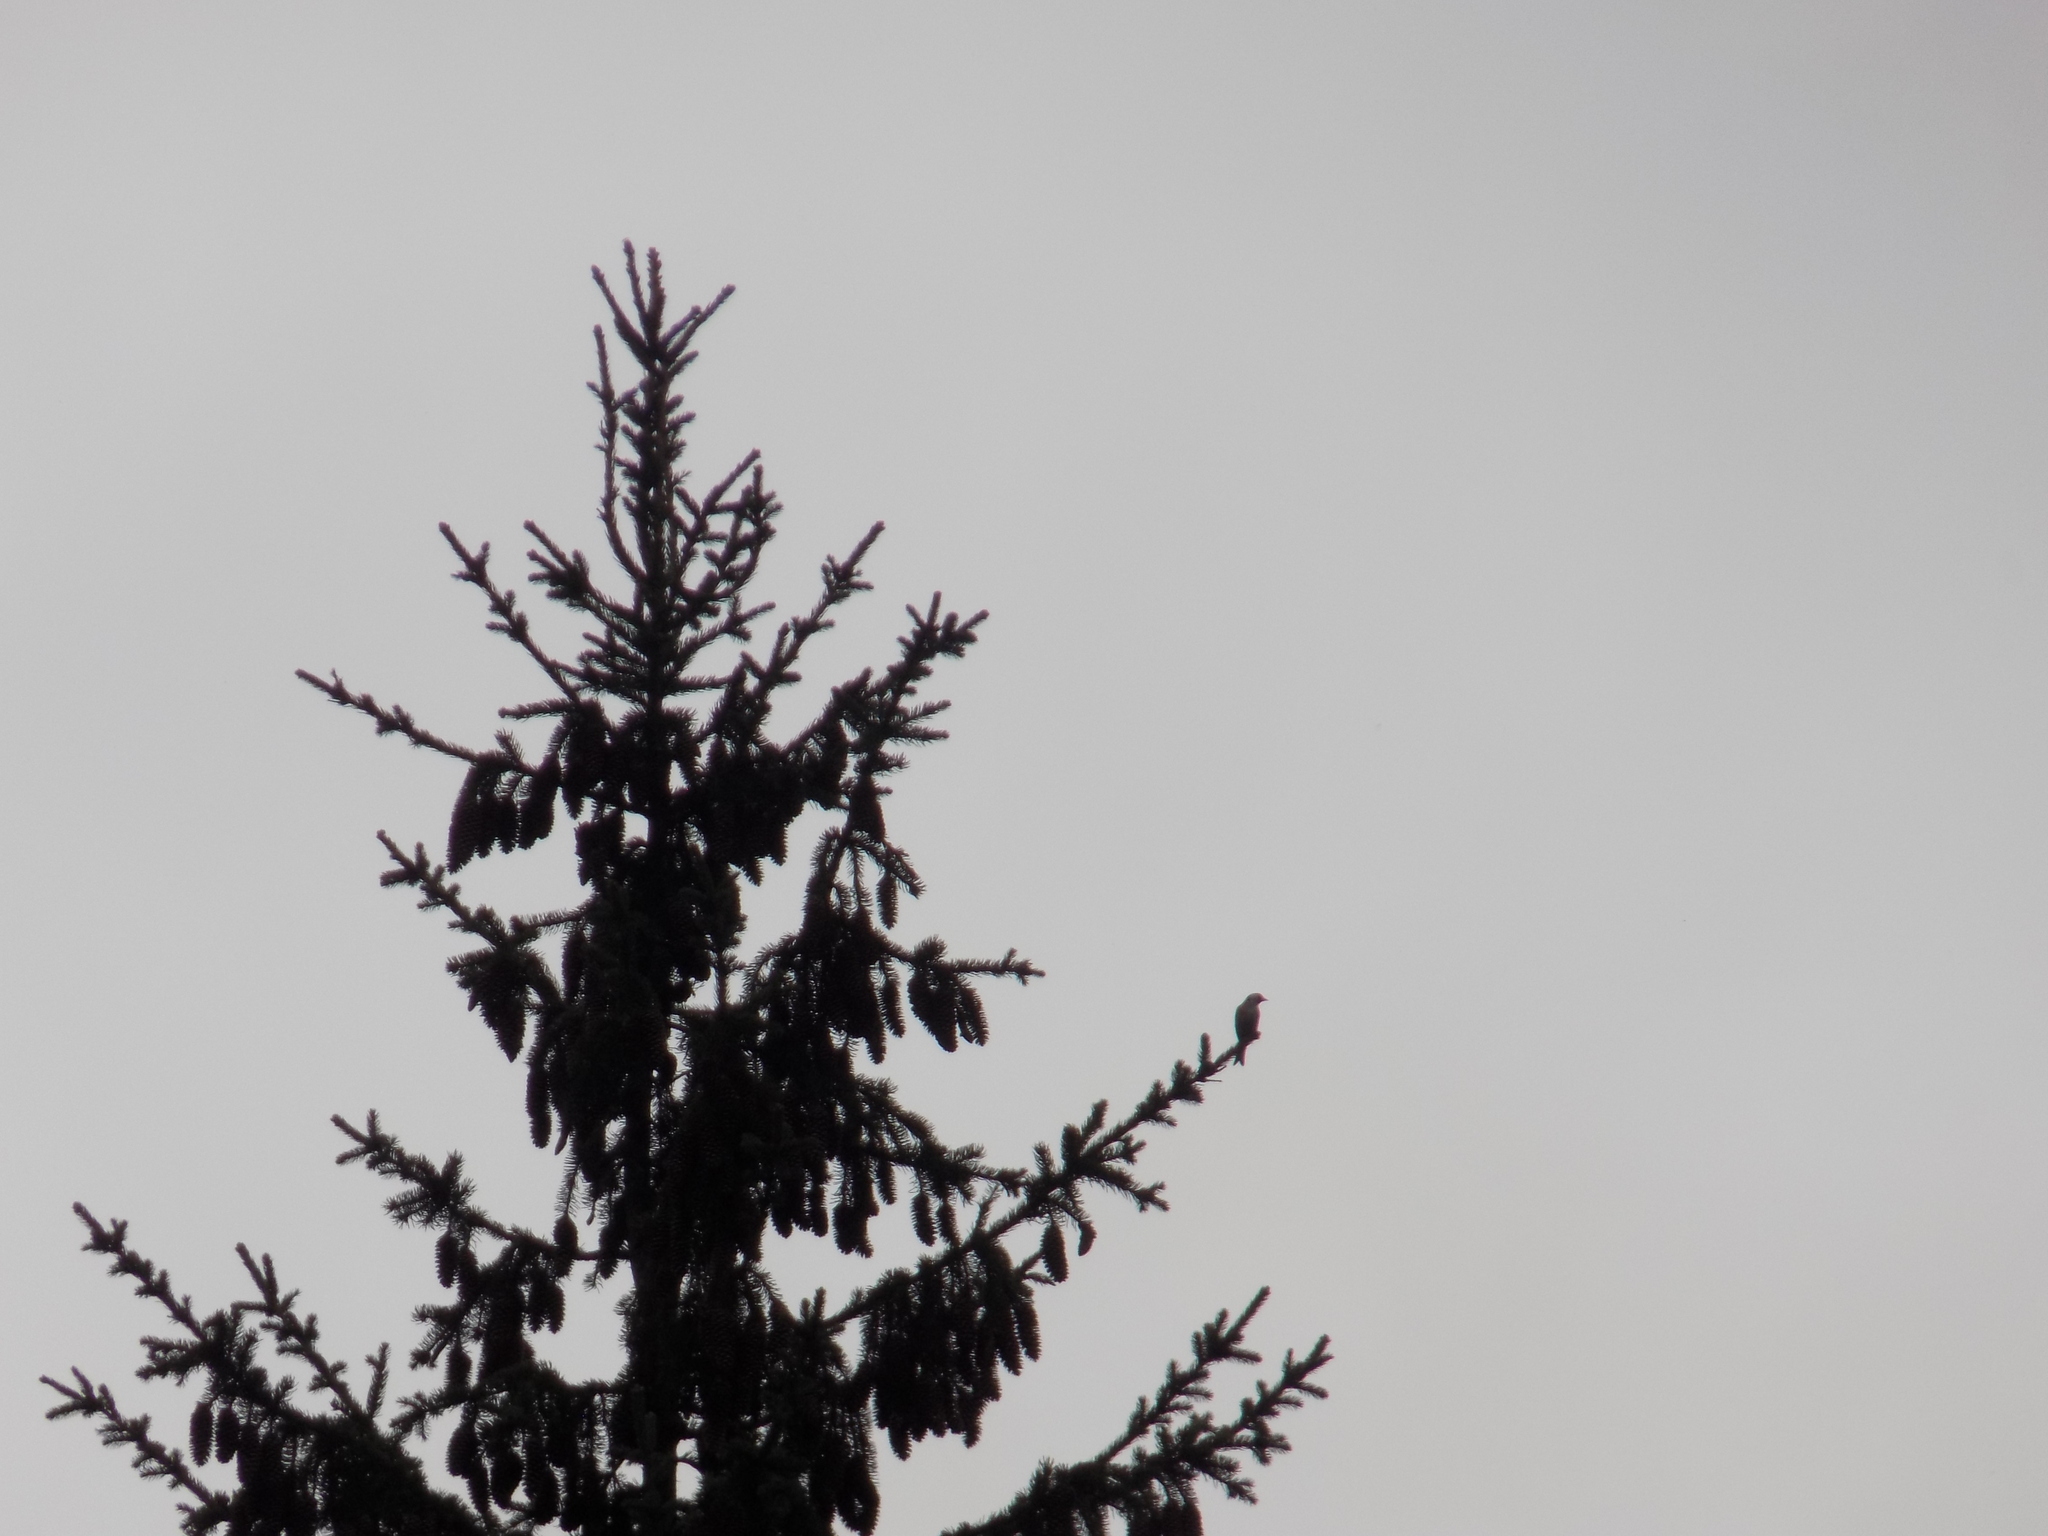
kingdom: Animalia
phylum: Chordata
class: Aves
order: Passeriformes
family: Fringillidae
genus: Carduelis
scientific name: Carduelis carduelis
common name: European goldfinch
